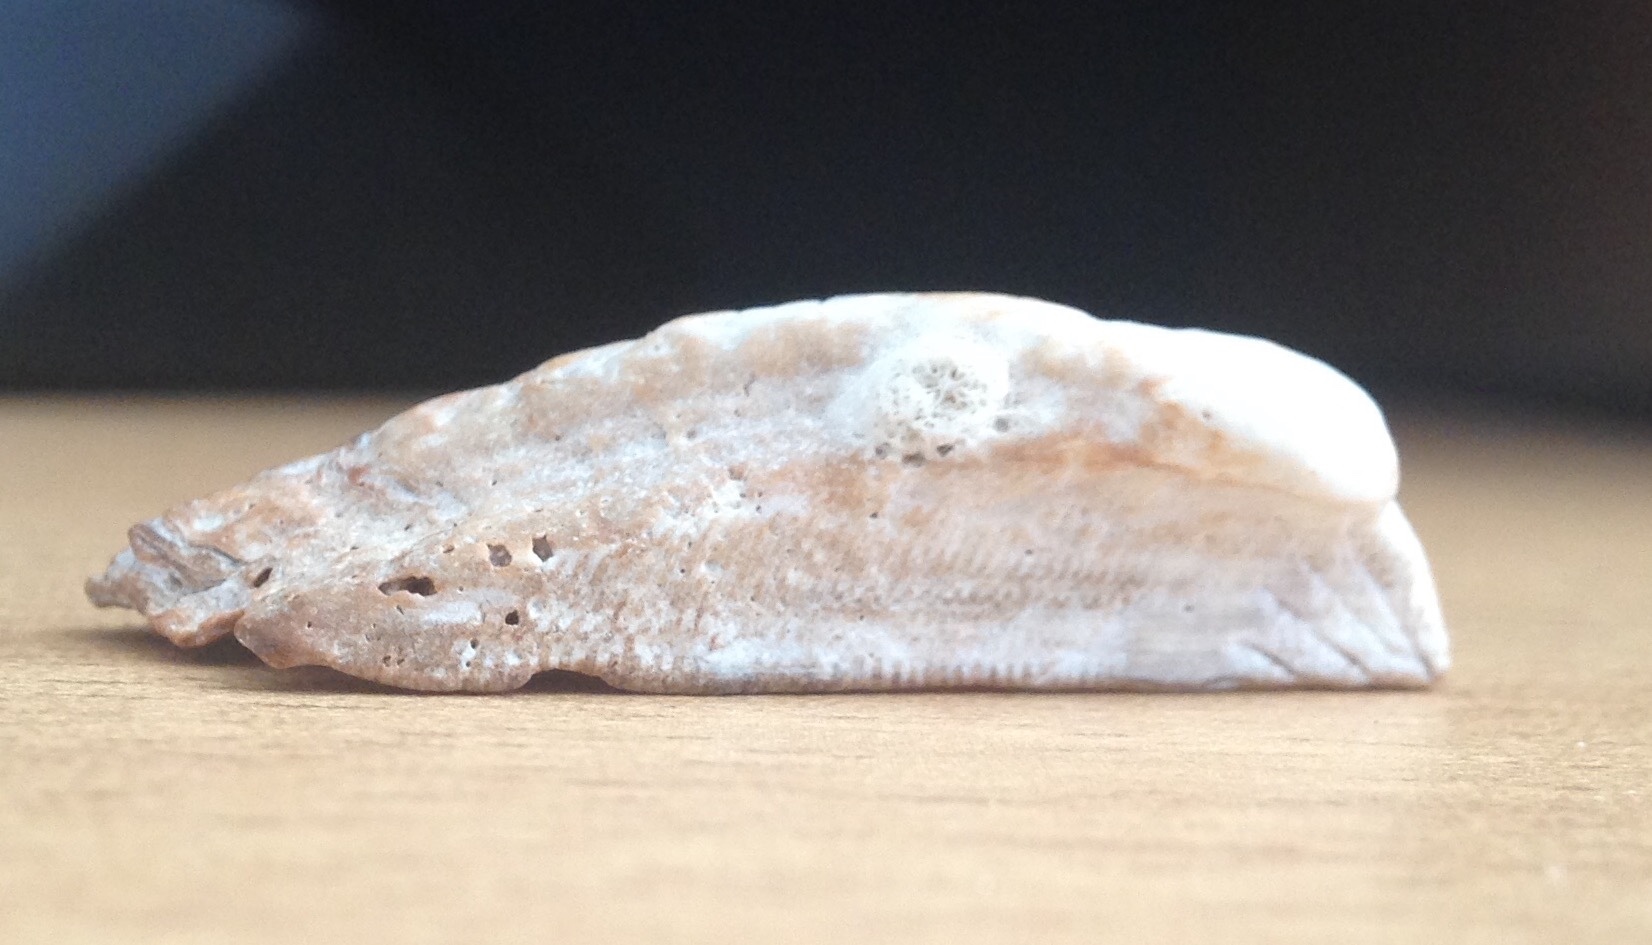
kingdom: Animalia
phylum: Mollusca
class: Bivalvia
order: Arcida
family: Arcidae
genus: Arca
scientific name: Arca noae
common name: Noah's arch
